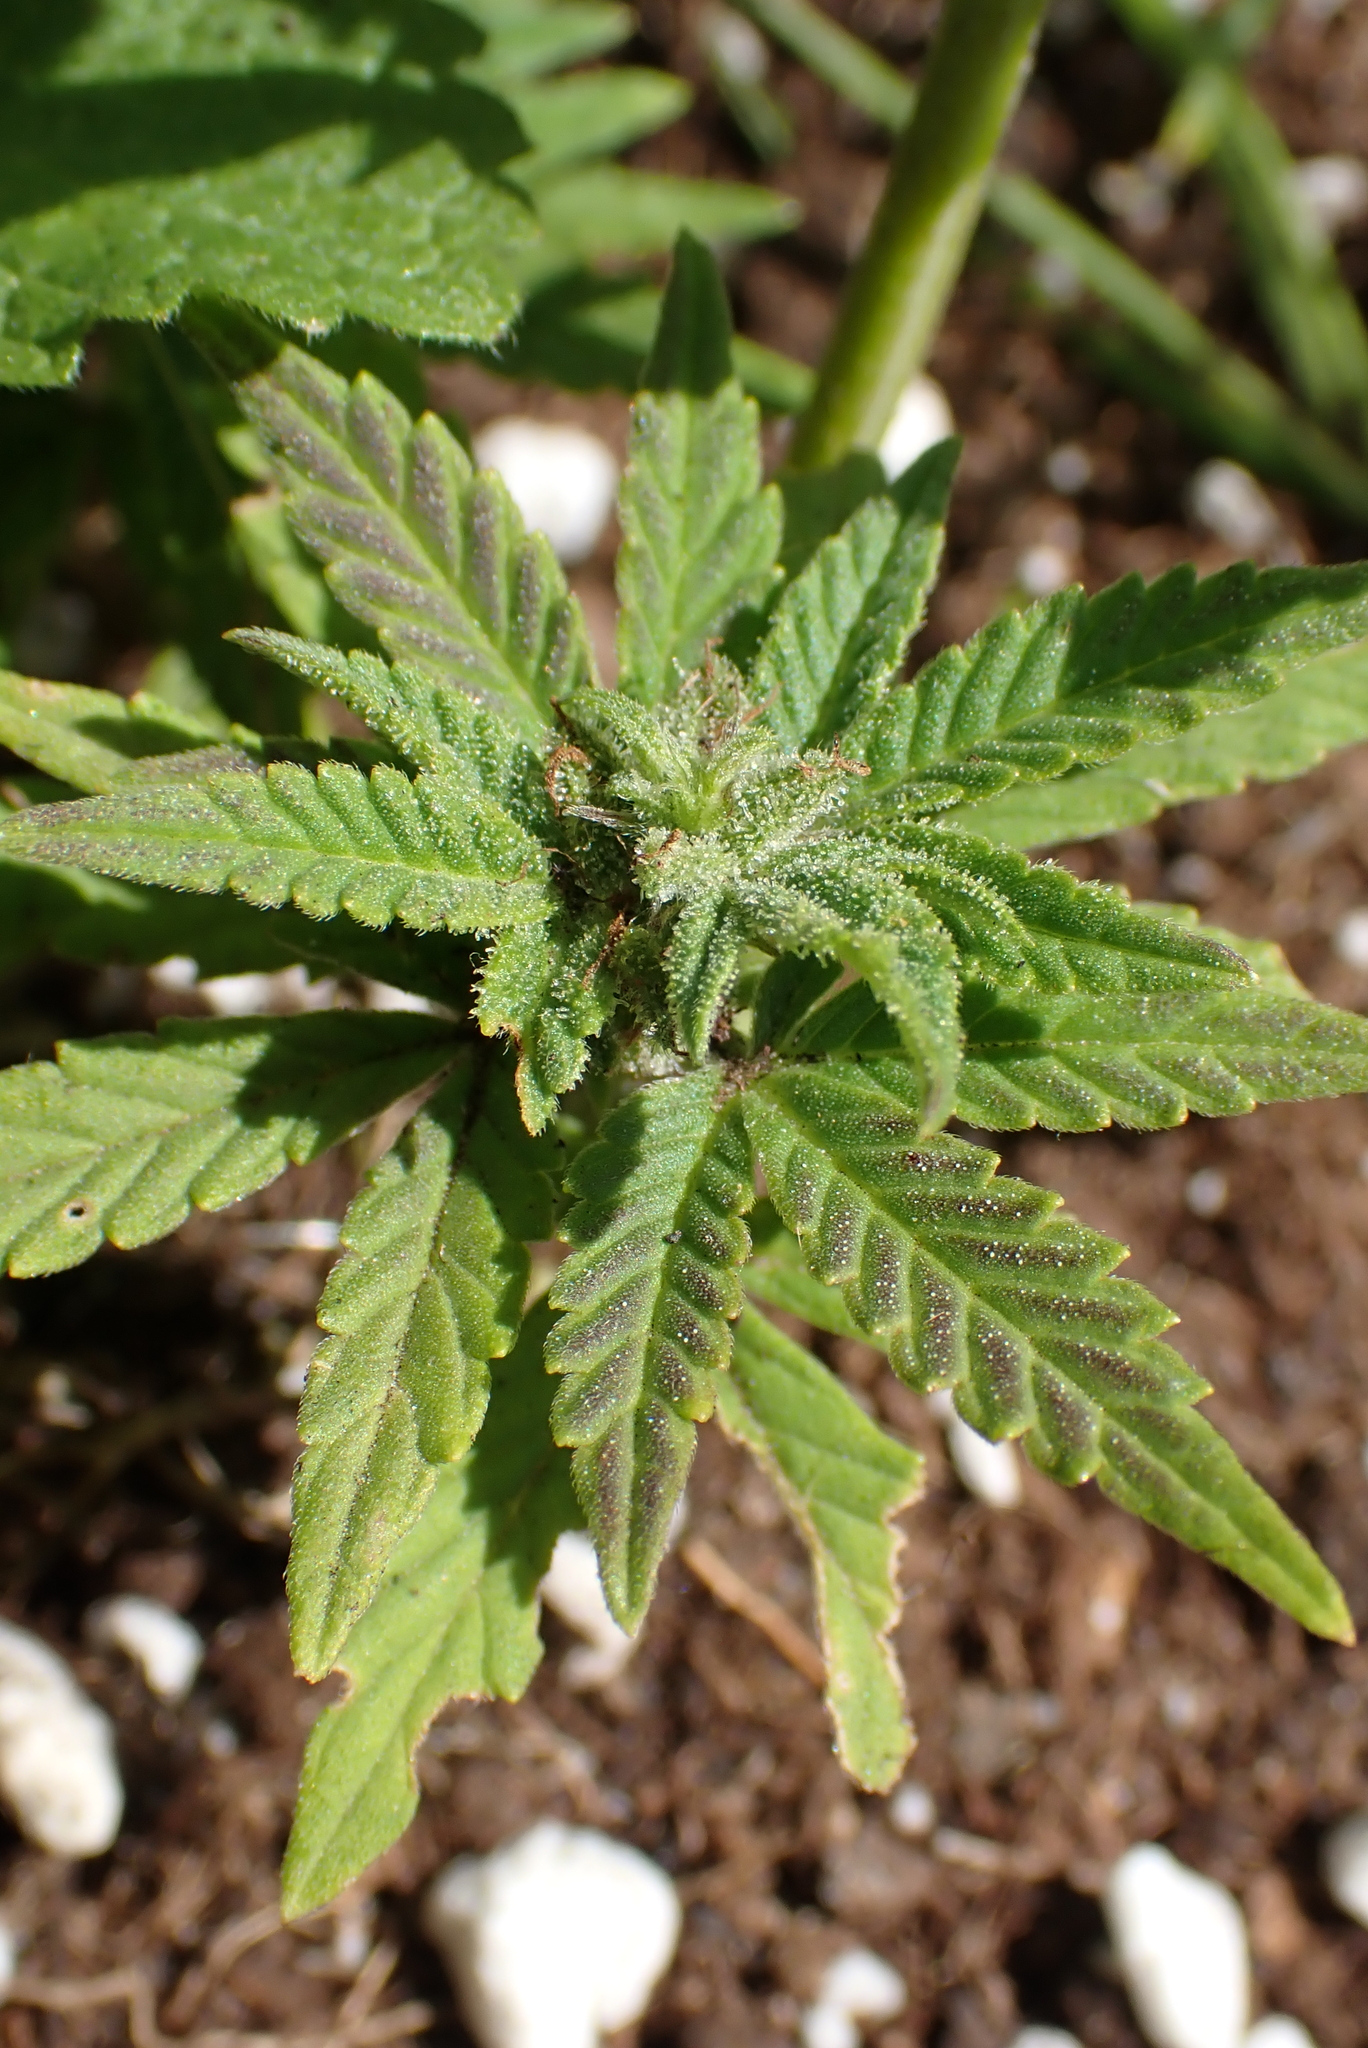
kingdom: Plantae
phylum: Tracheophyta
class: Magnoliopsida
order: Rosales
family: Cannabaceae
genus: Cannabis
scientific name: Cannabis sativa
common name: Hemp
